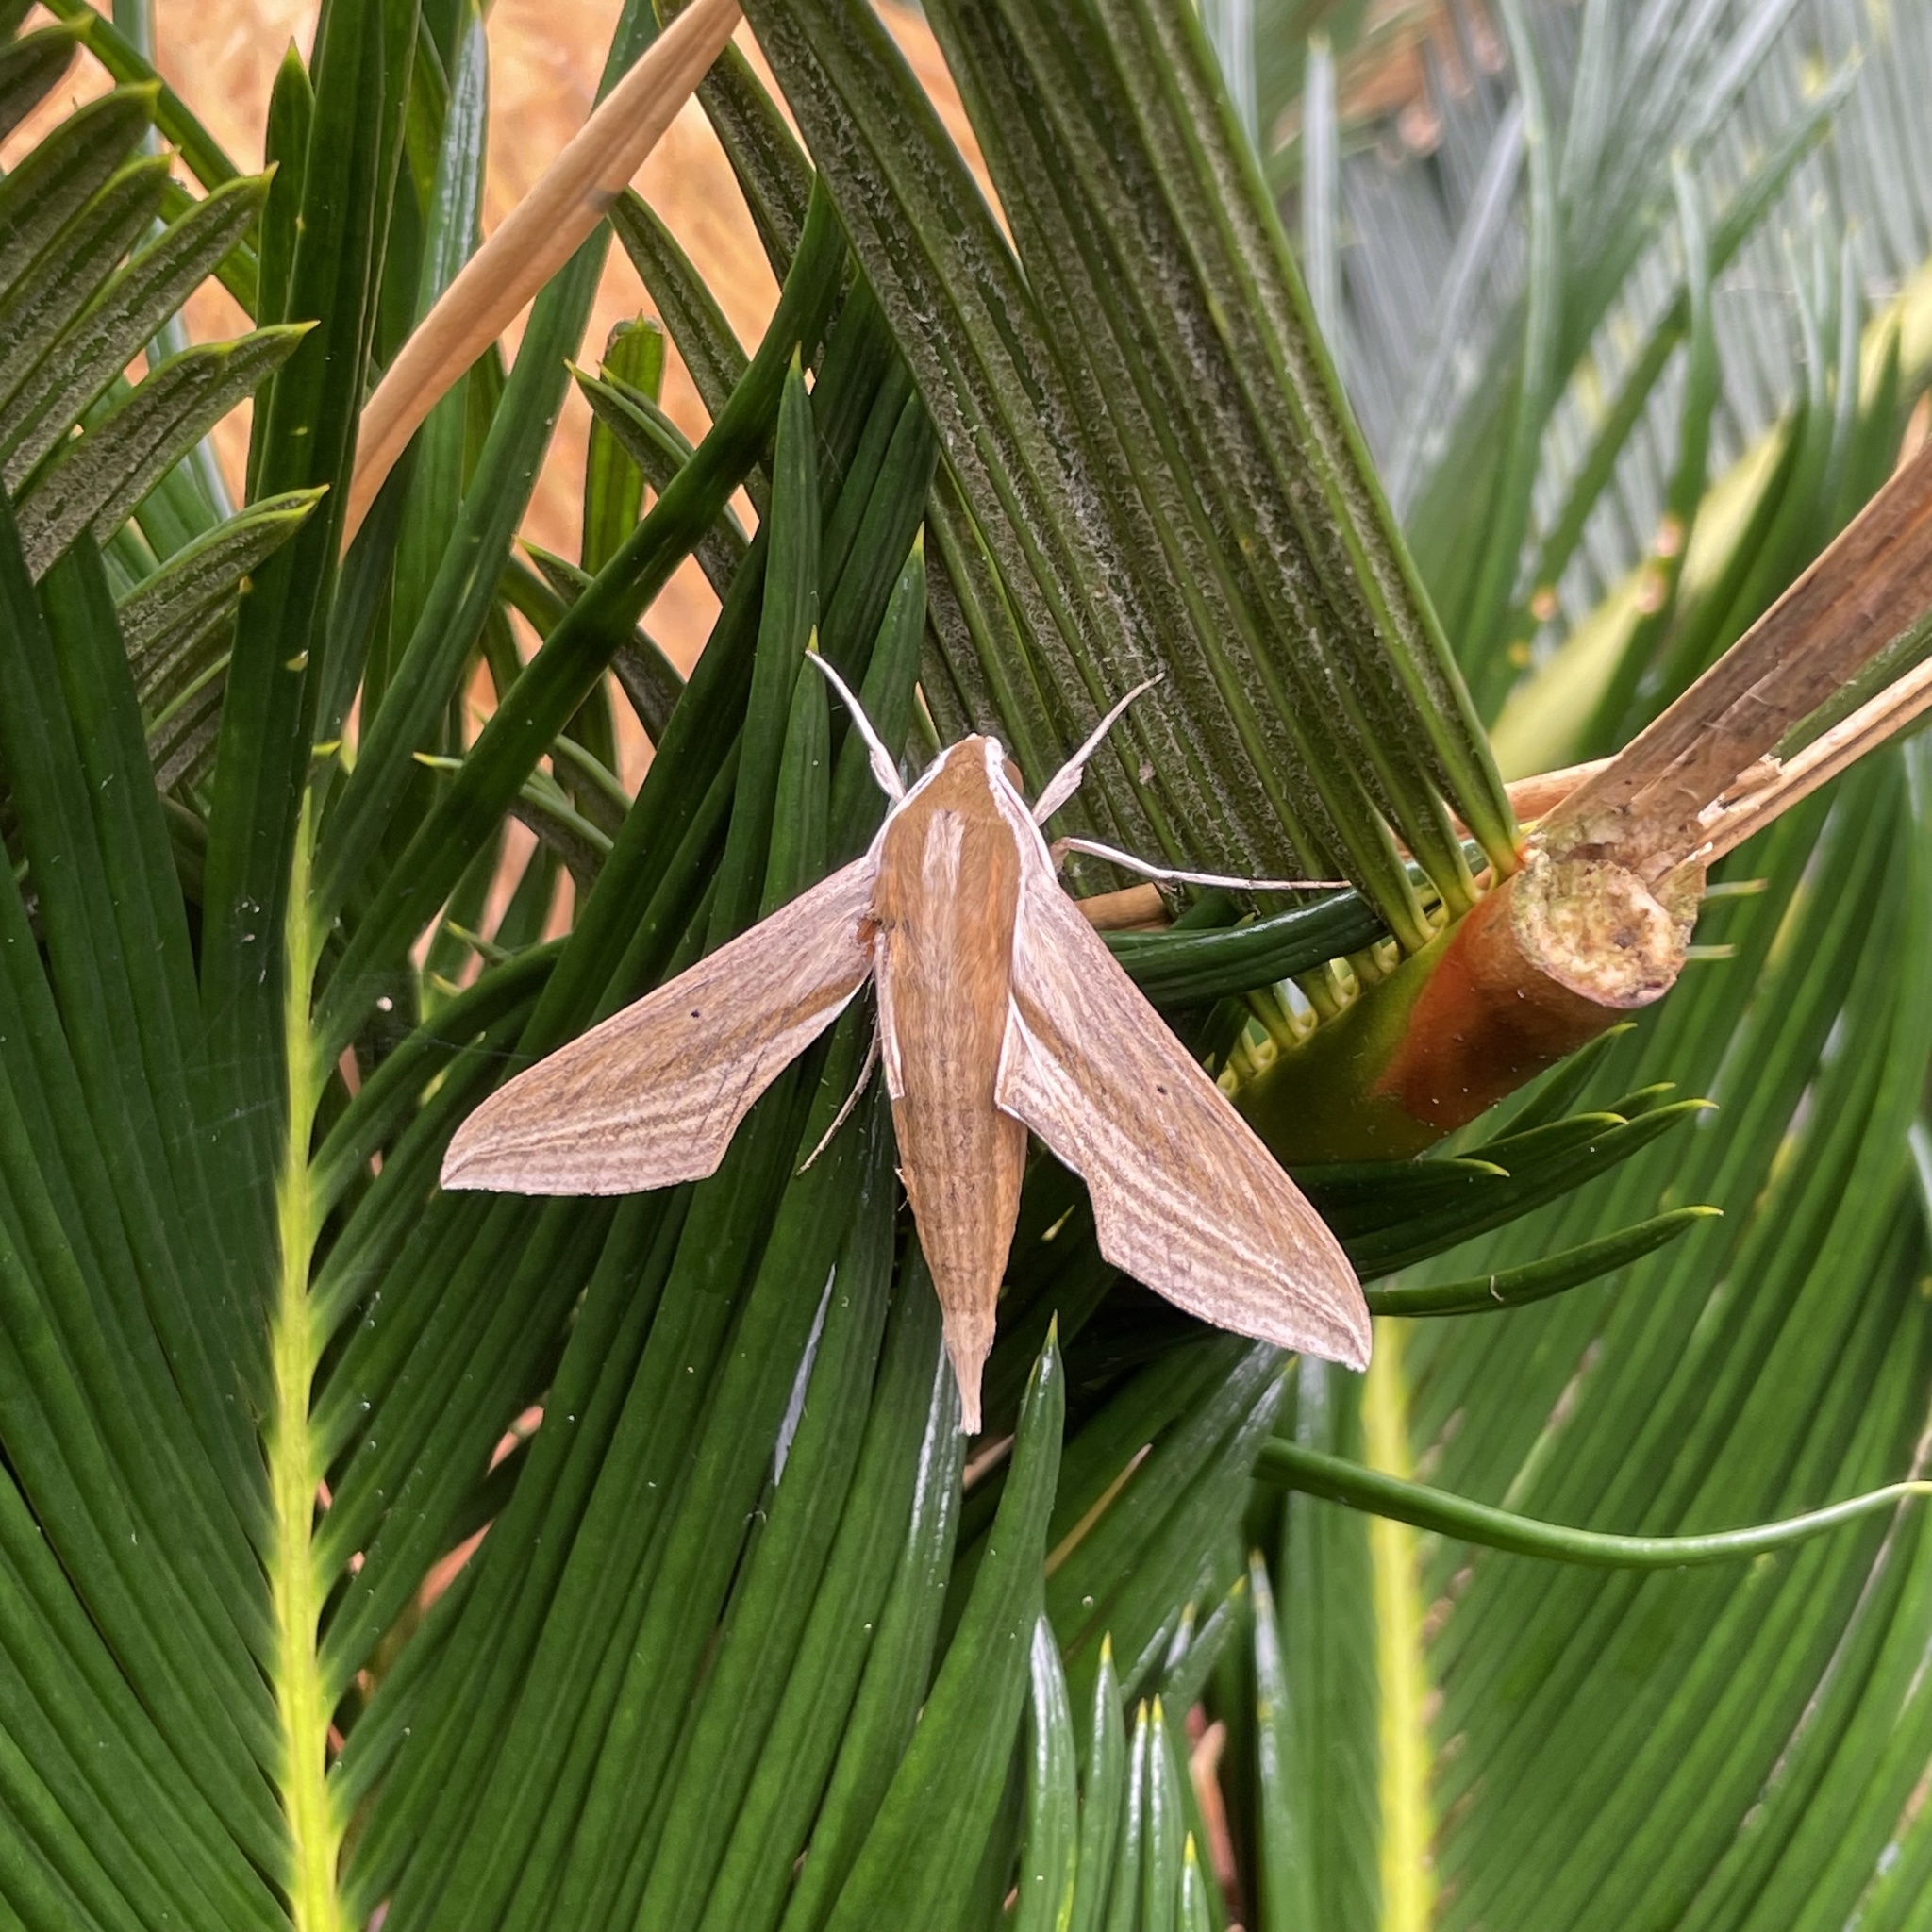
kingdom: Animalia
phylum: Arthropoda
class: Insecta
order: Lepidoptera
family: Sphingidae
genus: Theretra
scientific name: Theretra japonica
